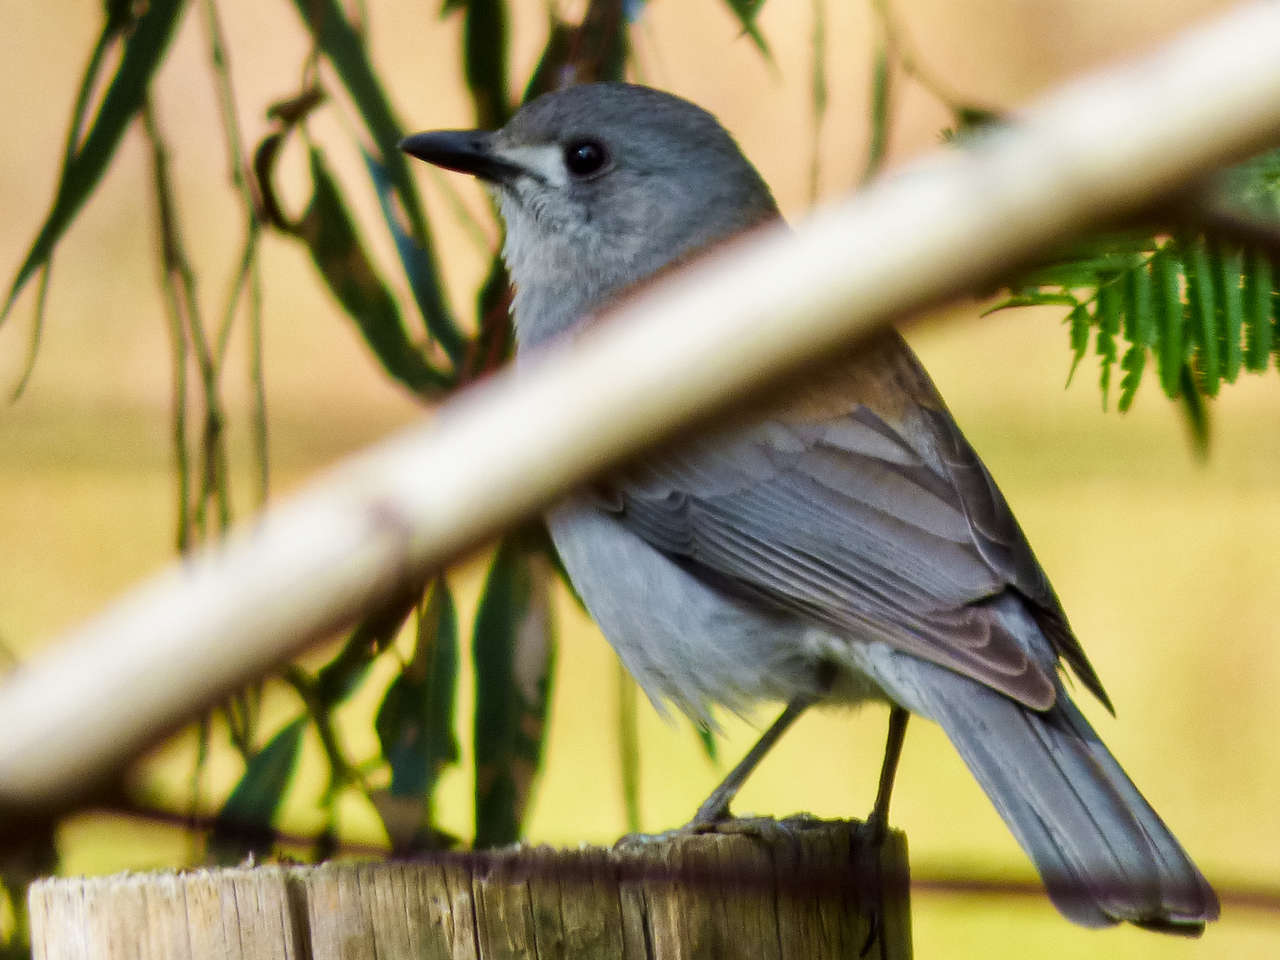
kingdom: Animalia
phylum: Chordata
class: Aves
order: Passeriformes
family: Pachycephalidae
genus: Colluricincla
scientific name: Colluricincla harmonica
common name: Grey shrikethrush
